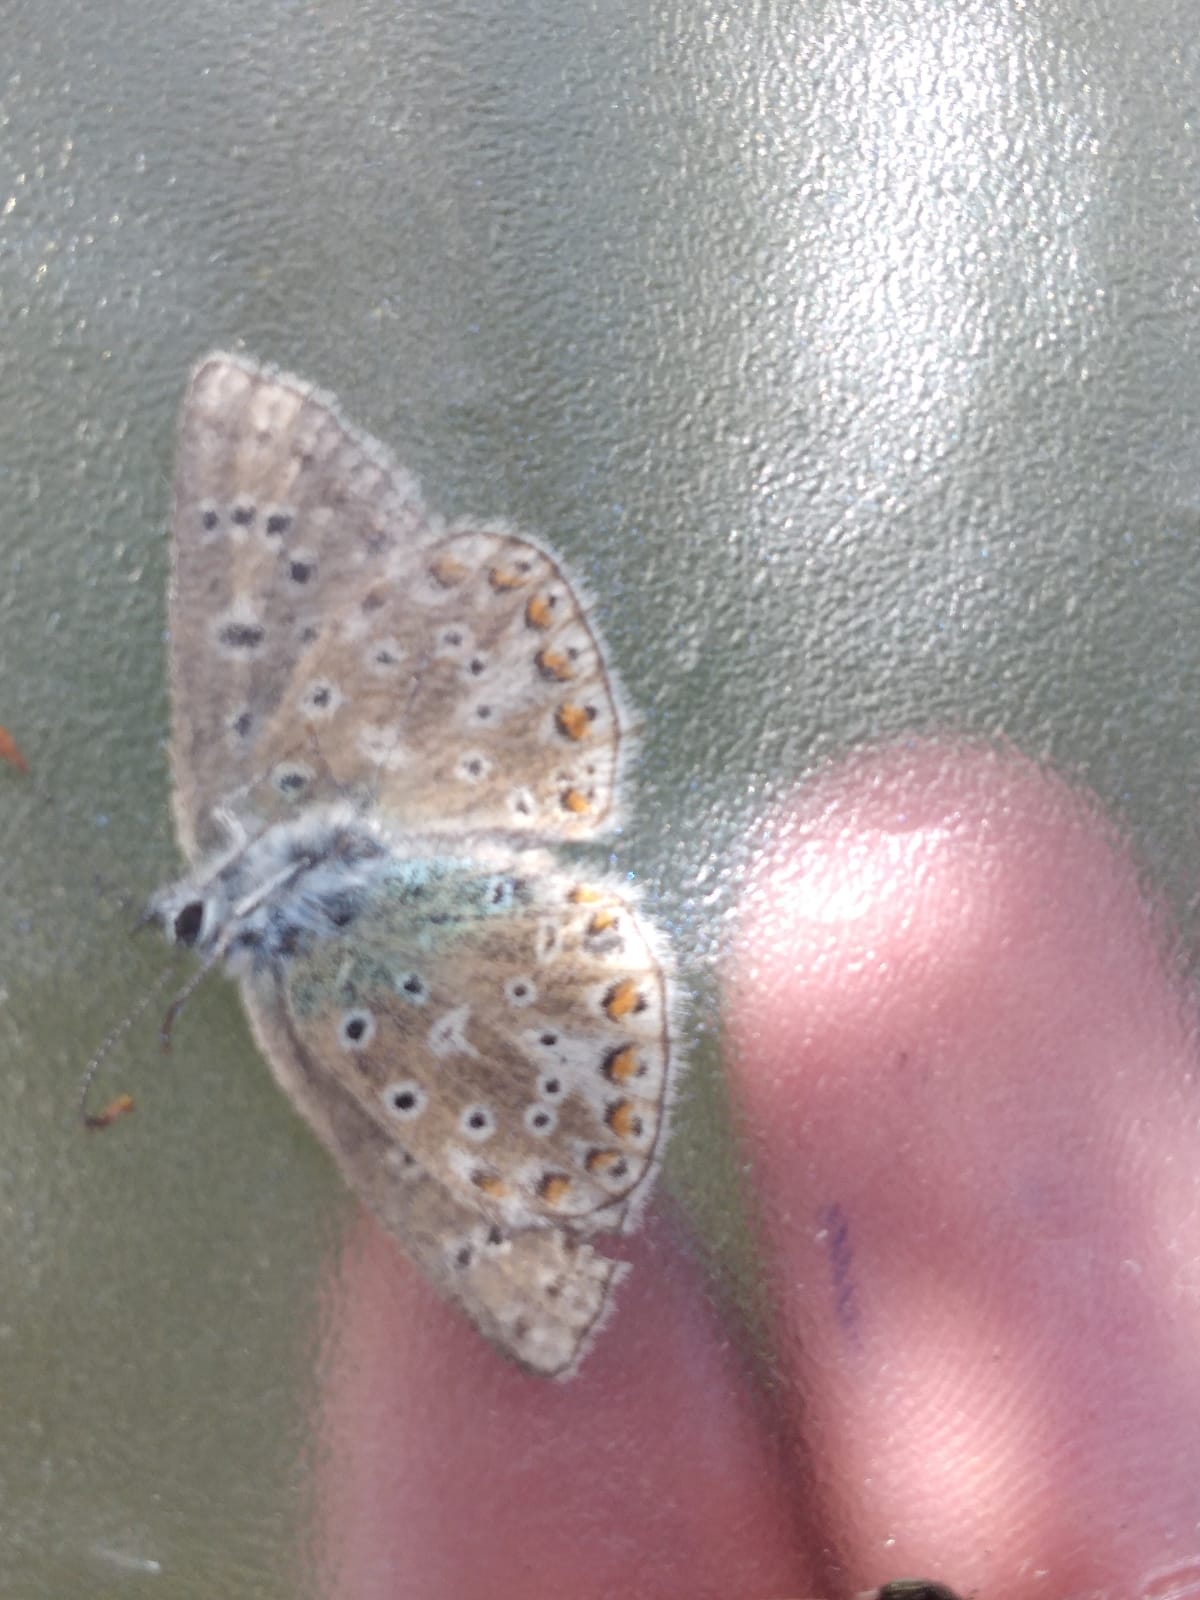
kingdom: Animalia
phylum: Arthropoda
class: Insecta
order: Lepidoptera
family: Lycaenidae
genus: Lysandra
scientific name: Lysandra bellargus
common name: Adonis blue
